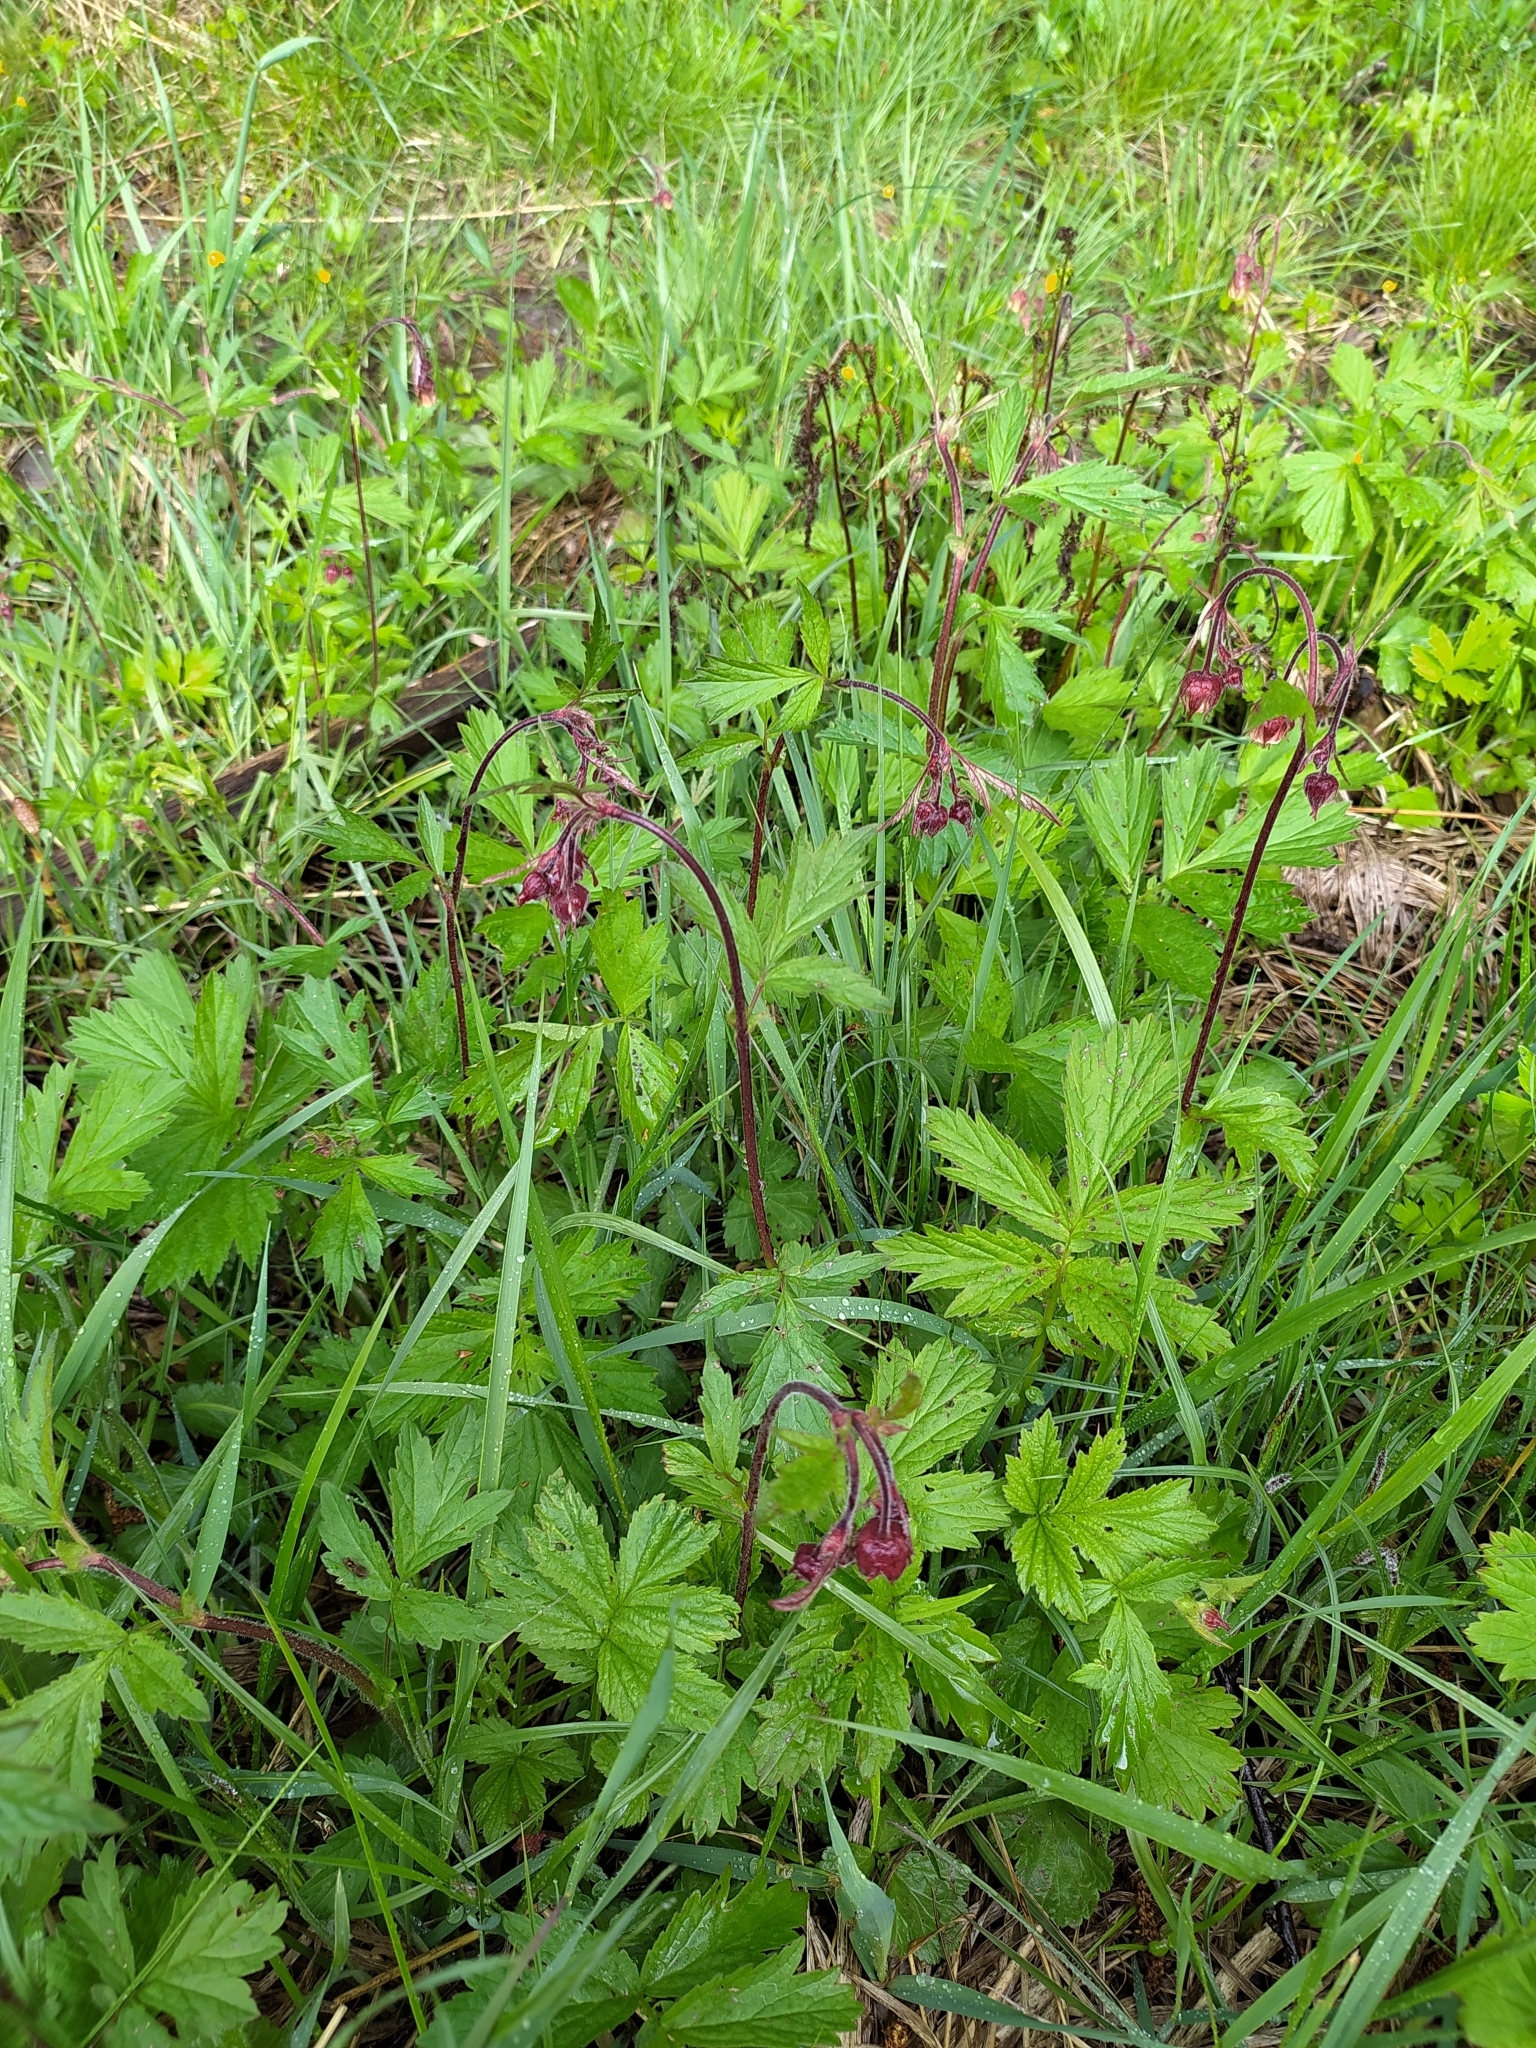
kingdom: Plantae
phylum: Tracheophyta
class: Magnoliopsida
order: Rosales
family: Rosaceae
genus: Geum
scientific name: Geum rivale
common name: Water avens
